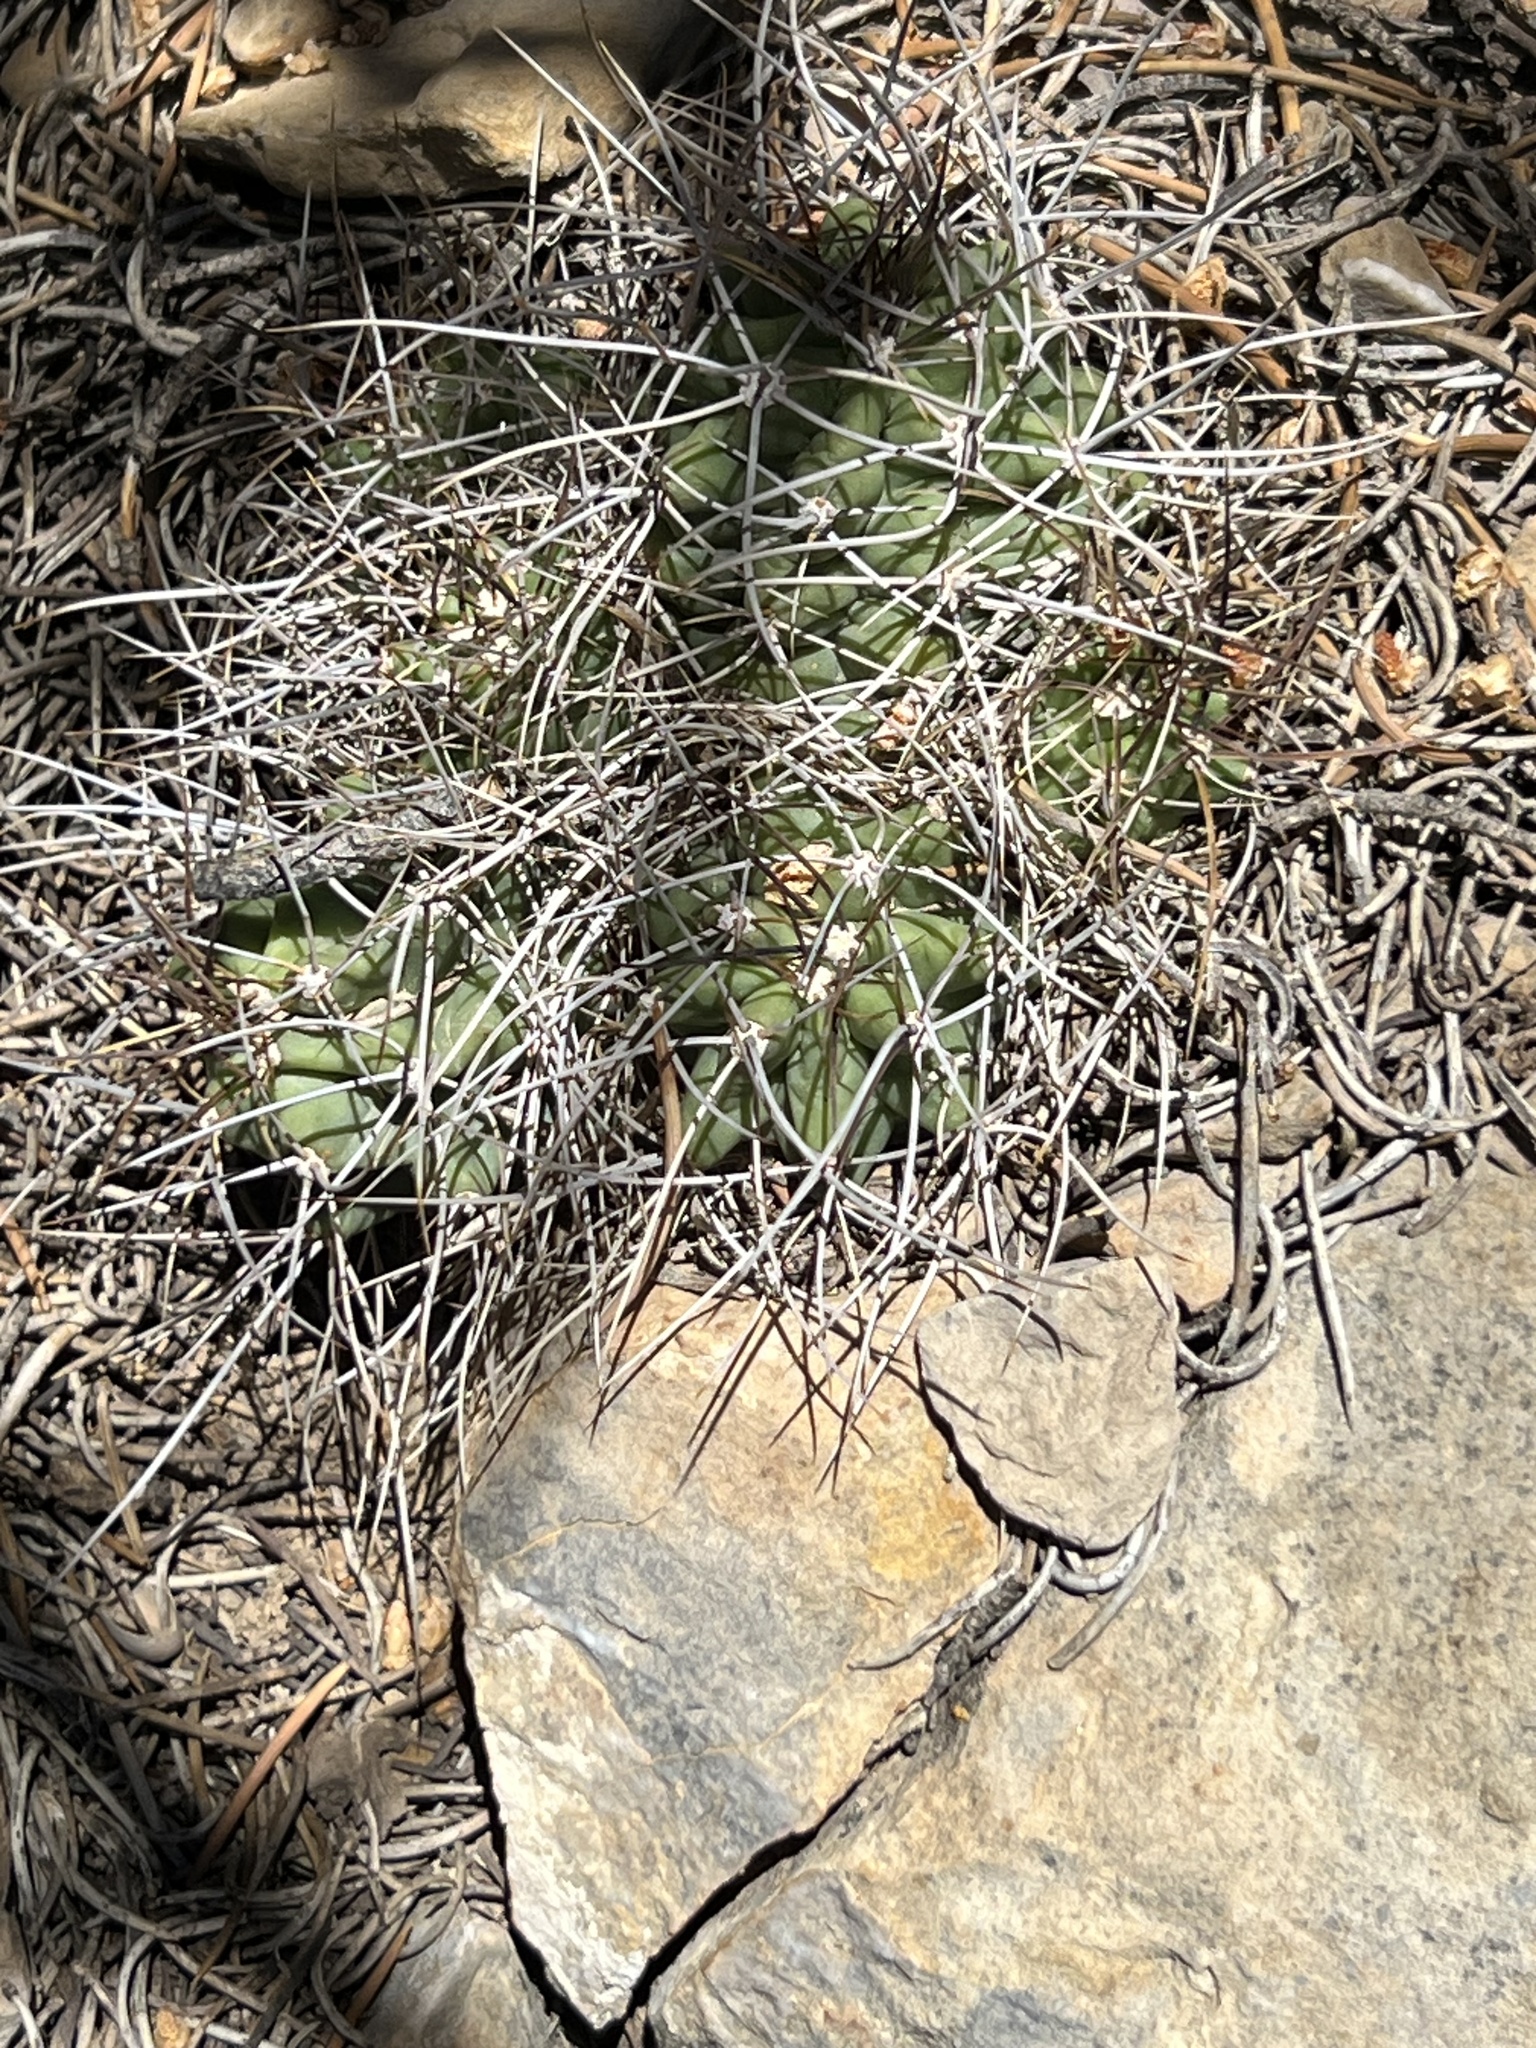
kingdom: Plantae
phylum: Tracheophyta
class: Magnoliopsida
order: Caryophyllales
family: Cactaceae
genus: Echinocereus
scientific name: Echinocereus triglochidiatus
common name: Claretcup hedgehog
